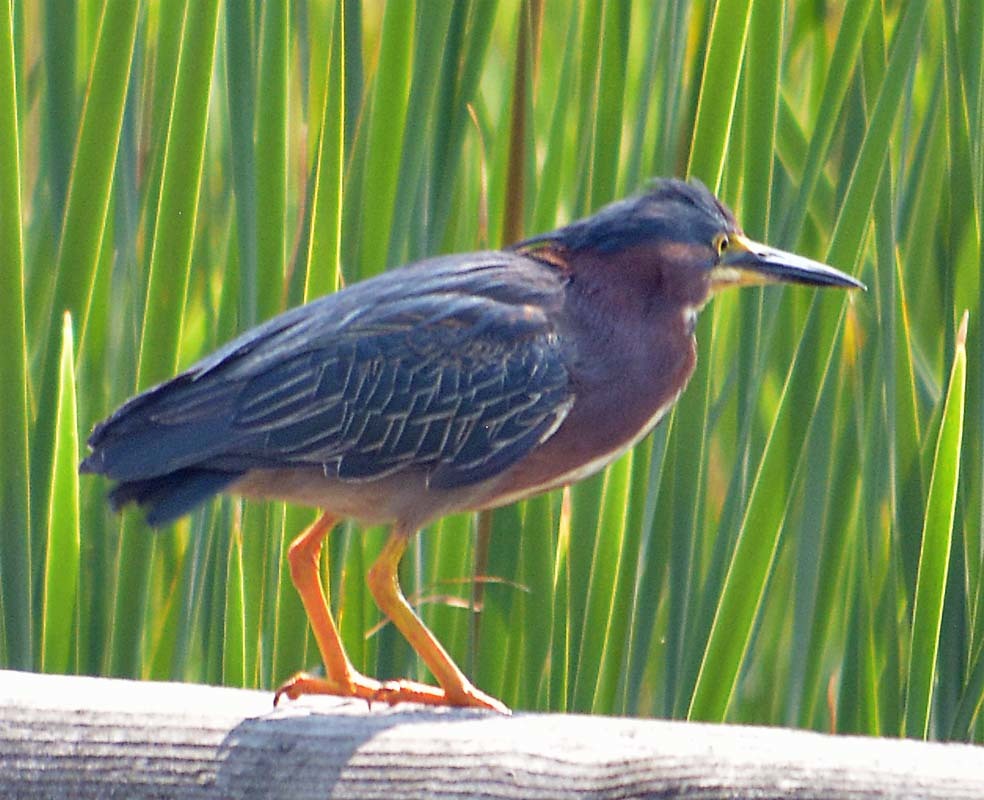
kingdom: Animalia
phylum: Chordata
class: Aves
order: Pelecaniformes
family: Ardeidae
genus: Butorides
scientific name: Butorides virescens
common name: Green heron
